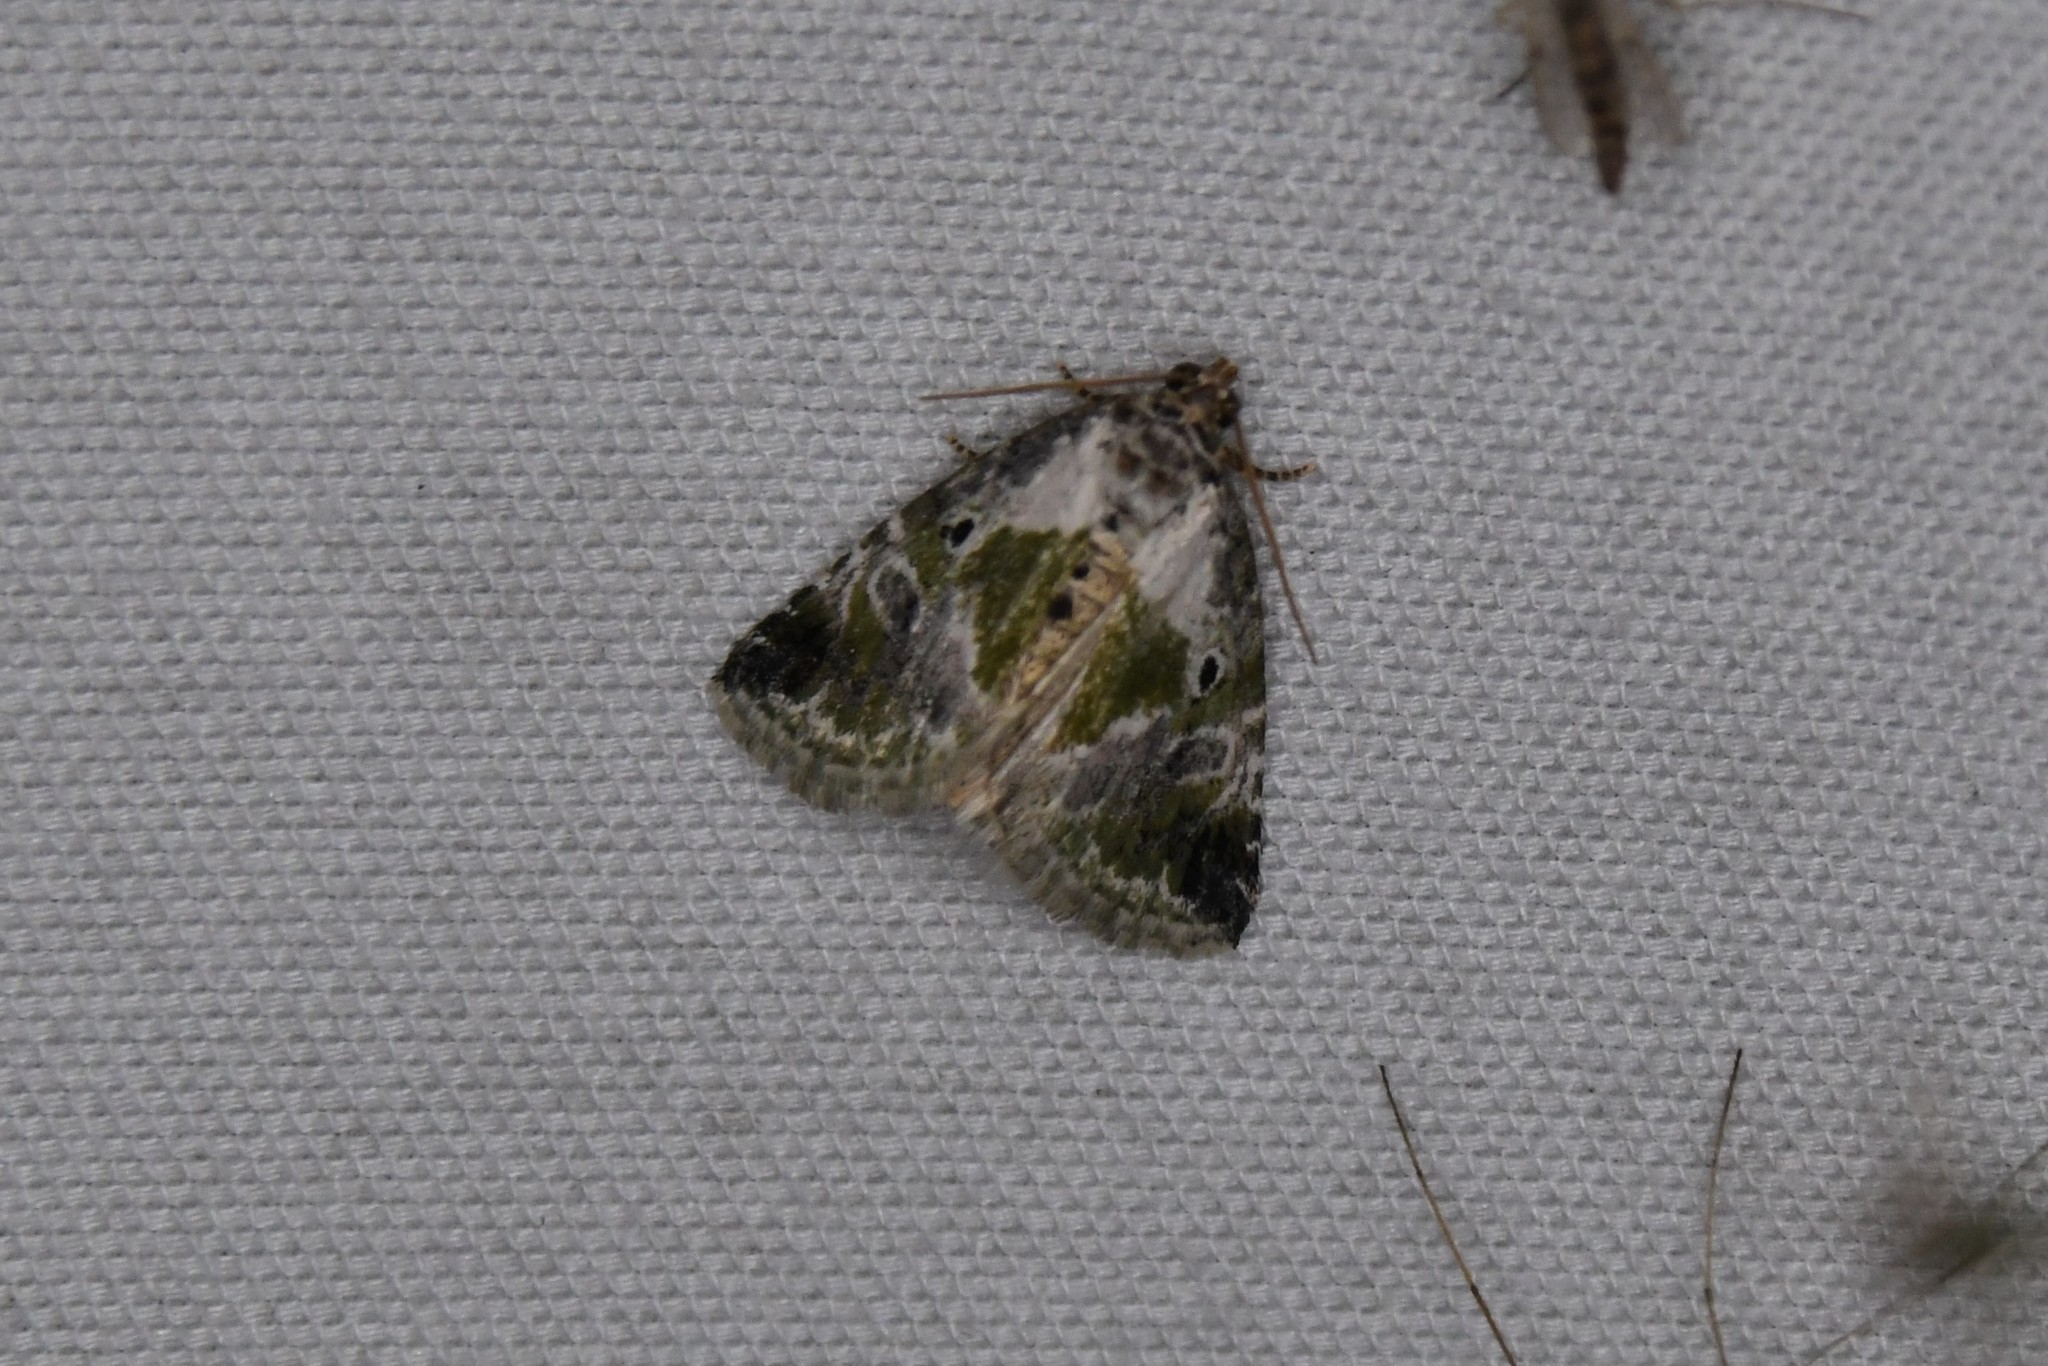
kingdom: Animalia
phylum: Arthropoda
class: Insecta
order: Lepidoptera
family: Noctuidae
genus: Maliattha
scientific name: Maliattha synochitis
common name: Black-dotted glyph
